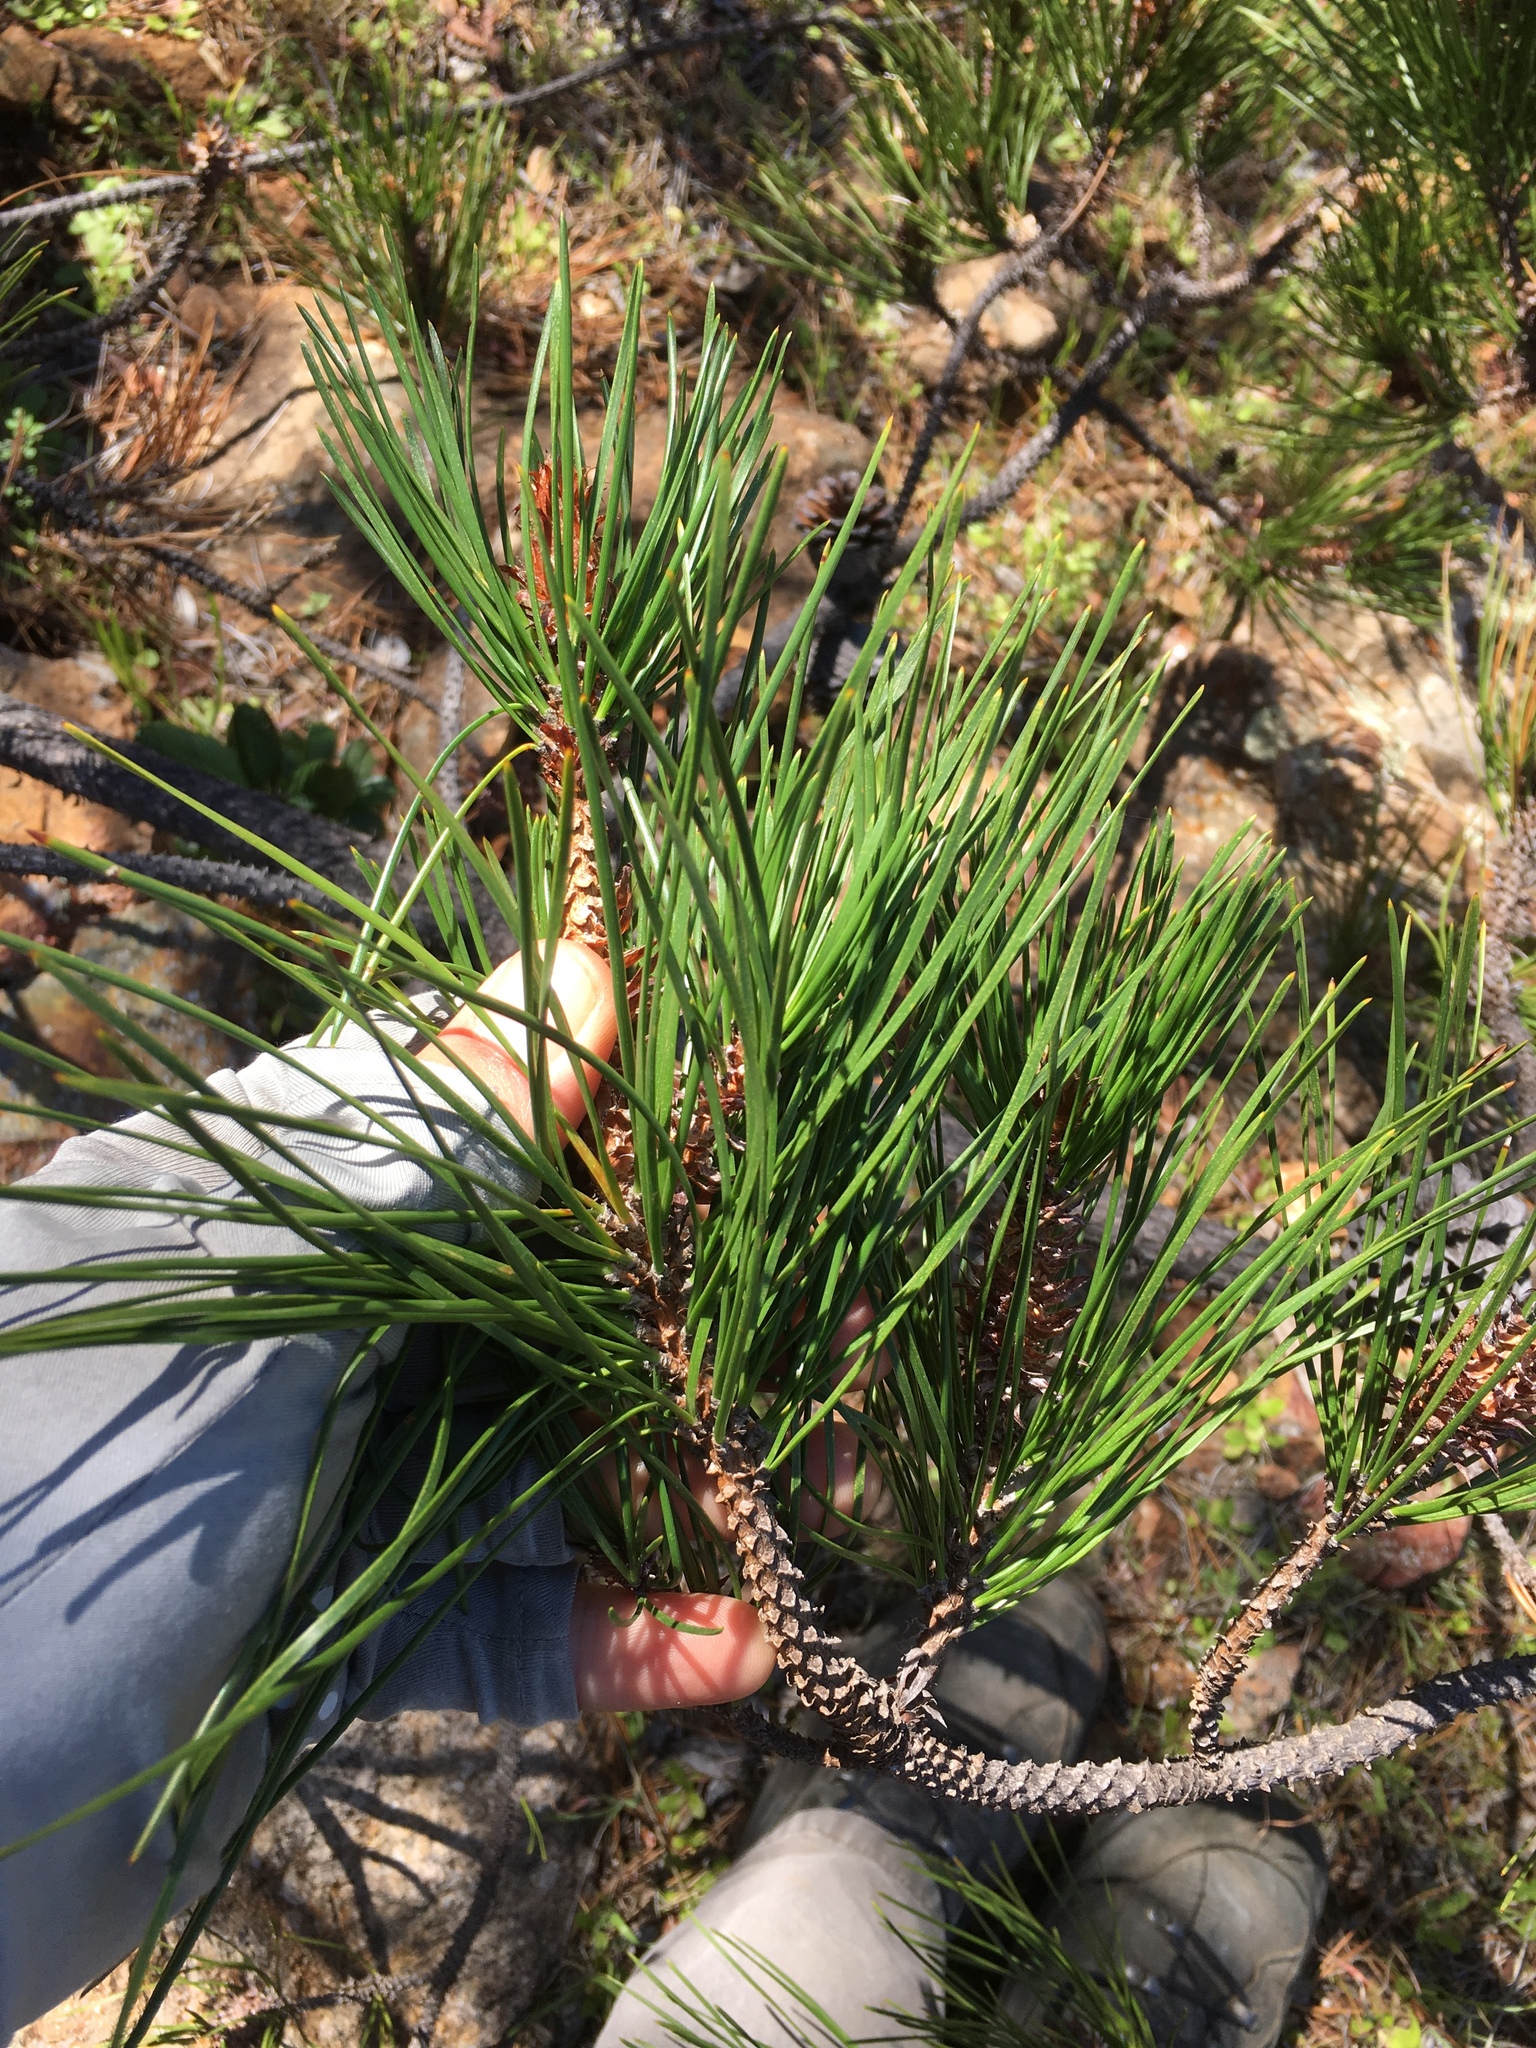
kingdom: Plantae
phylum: Tracheophyta
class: Pinopsida
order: Pinales
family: Pinaceae
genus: Pinus
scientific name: Pinus muricata
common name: Bishop pine
